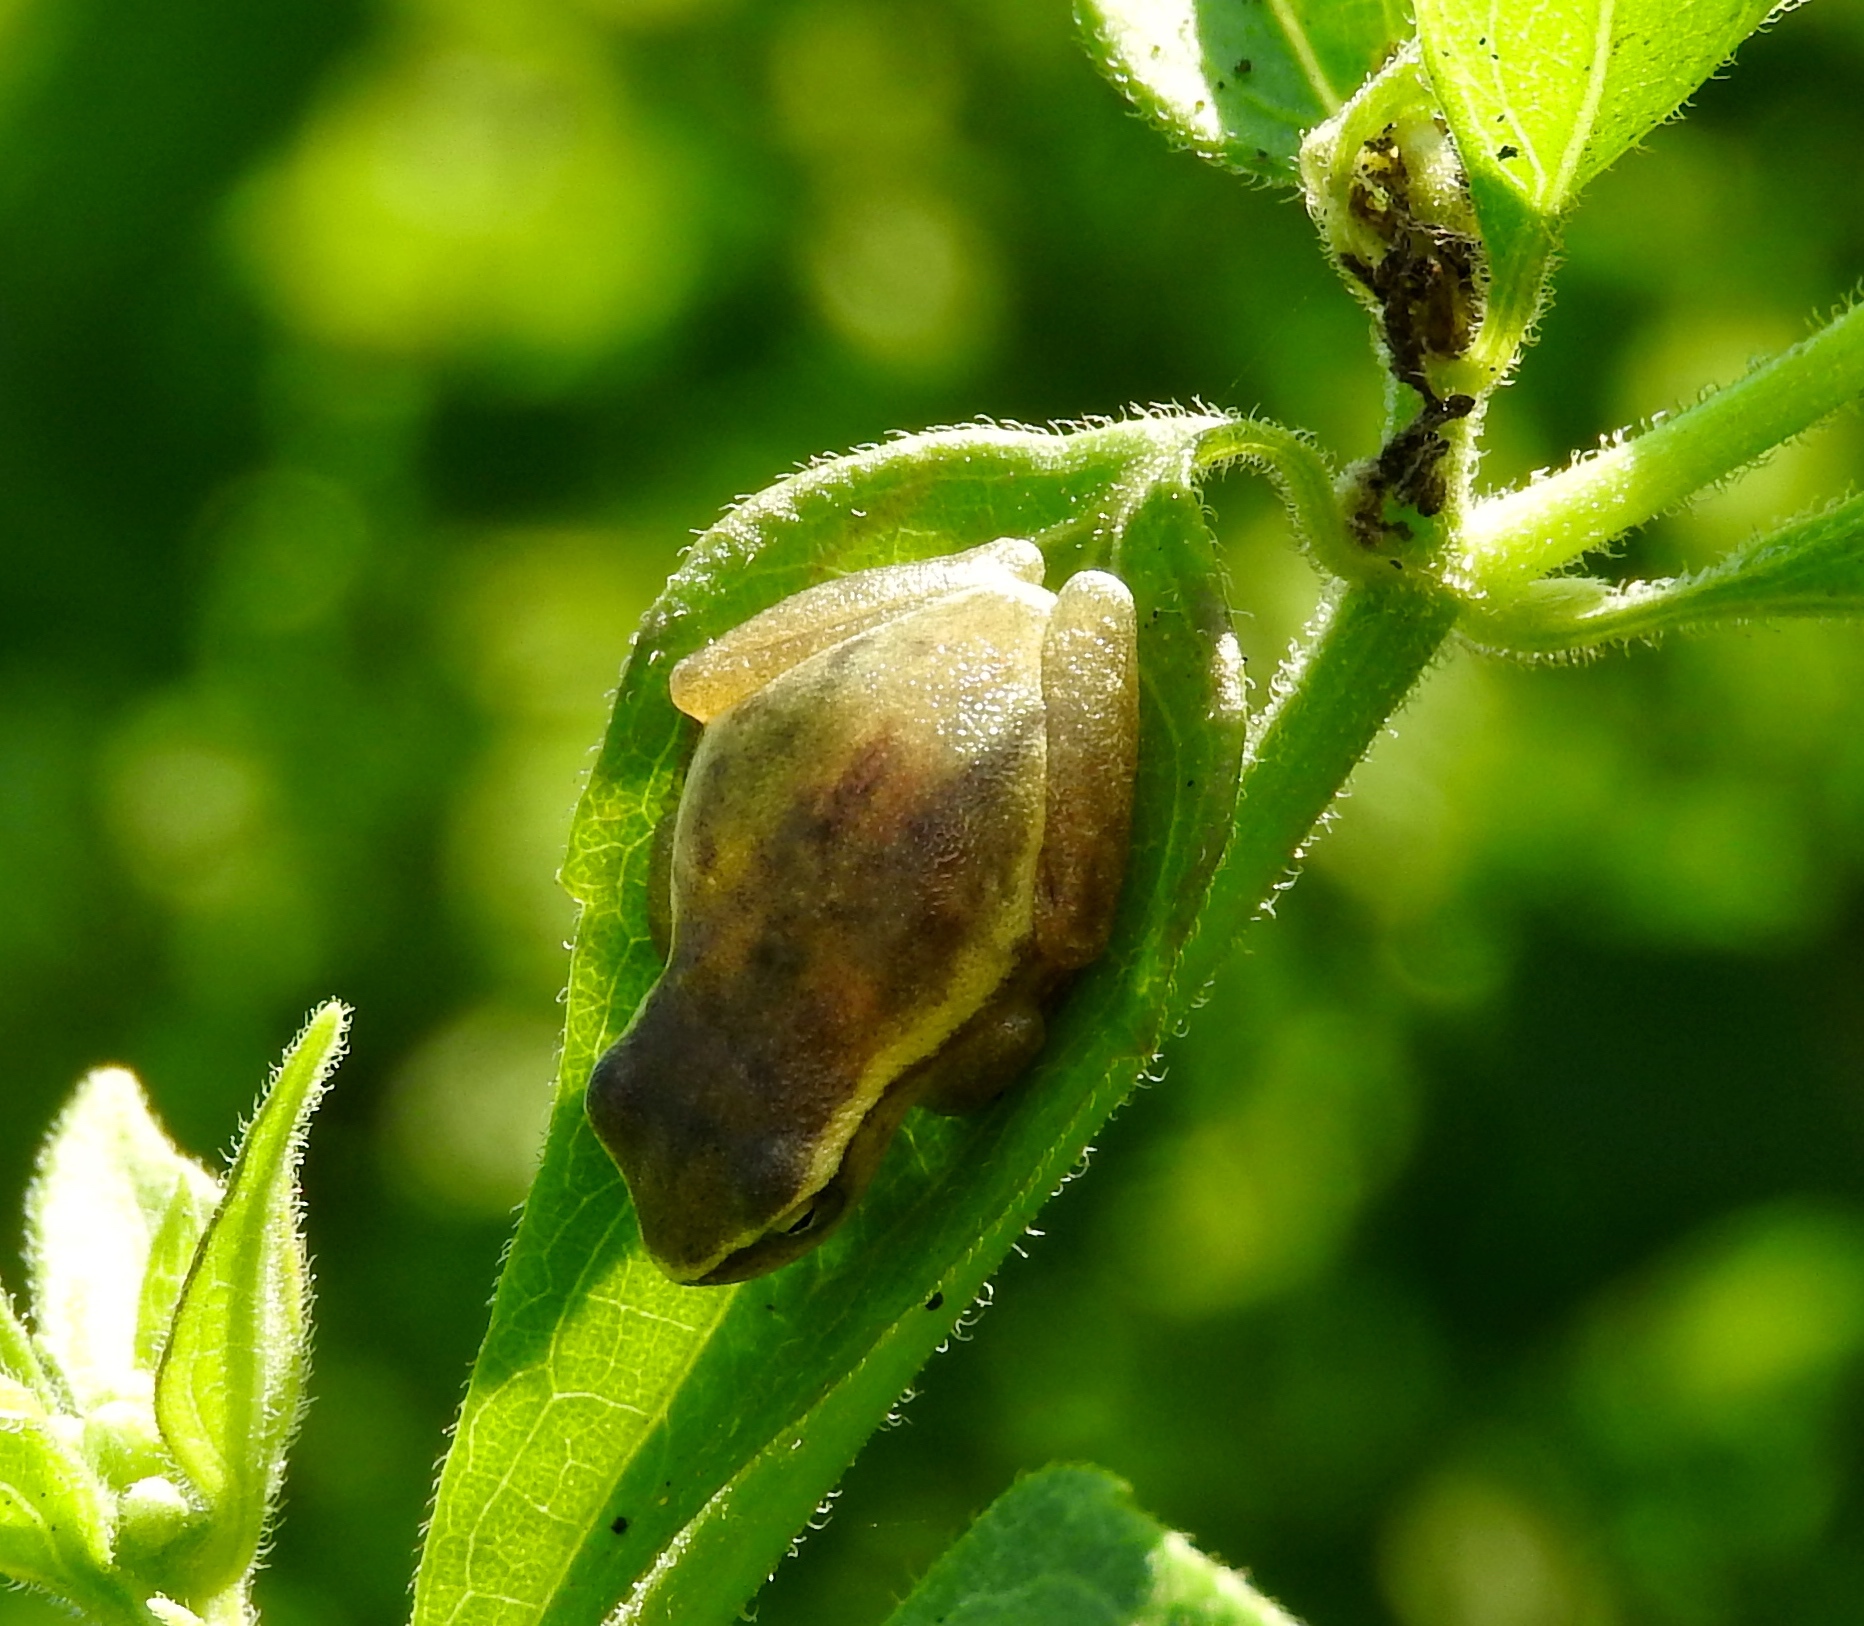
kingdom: Animalia
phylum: Chordata
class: Amphibia
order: Anura
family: Hylidae
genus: Tlalocohyla
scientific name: Tlalocohyla smithii
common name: Dwarf mexican treefrog
